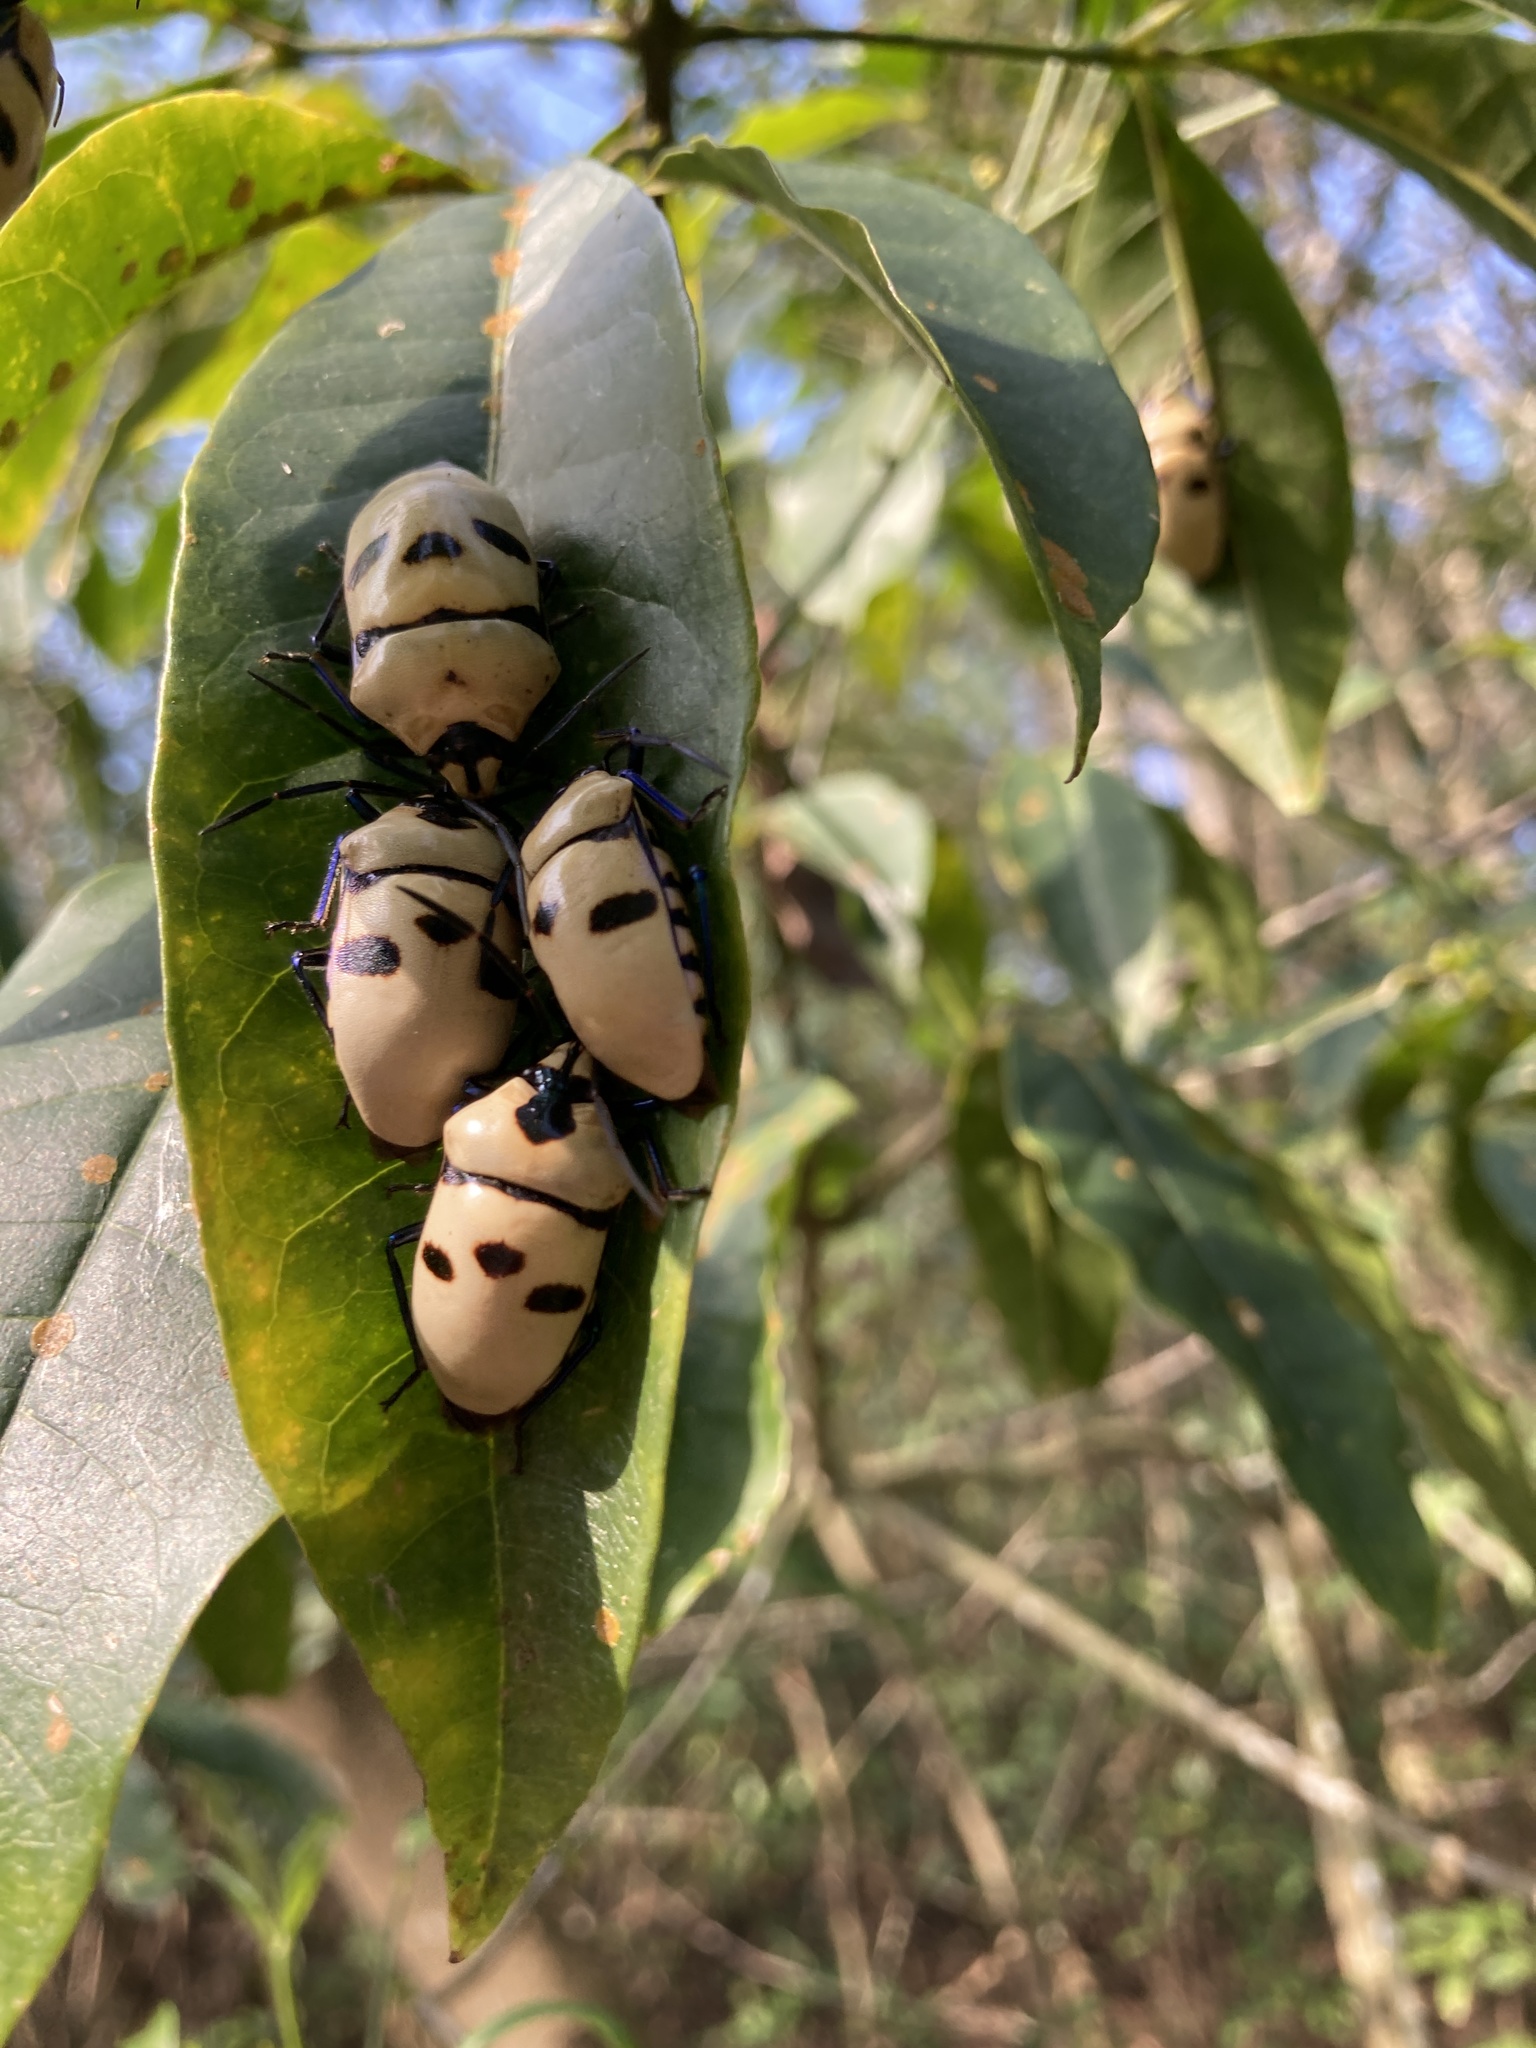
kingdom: Animalia
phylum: Arthropoda
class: Insecta
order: Hemiptera
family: Scutelleridae
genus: Eucorysses
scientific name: Eucorysses grandis
